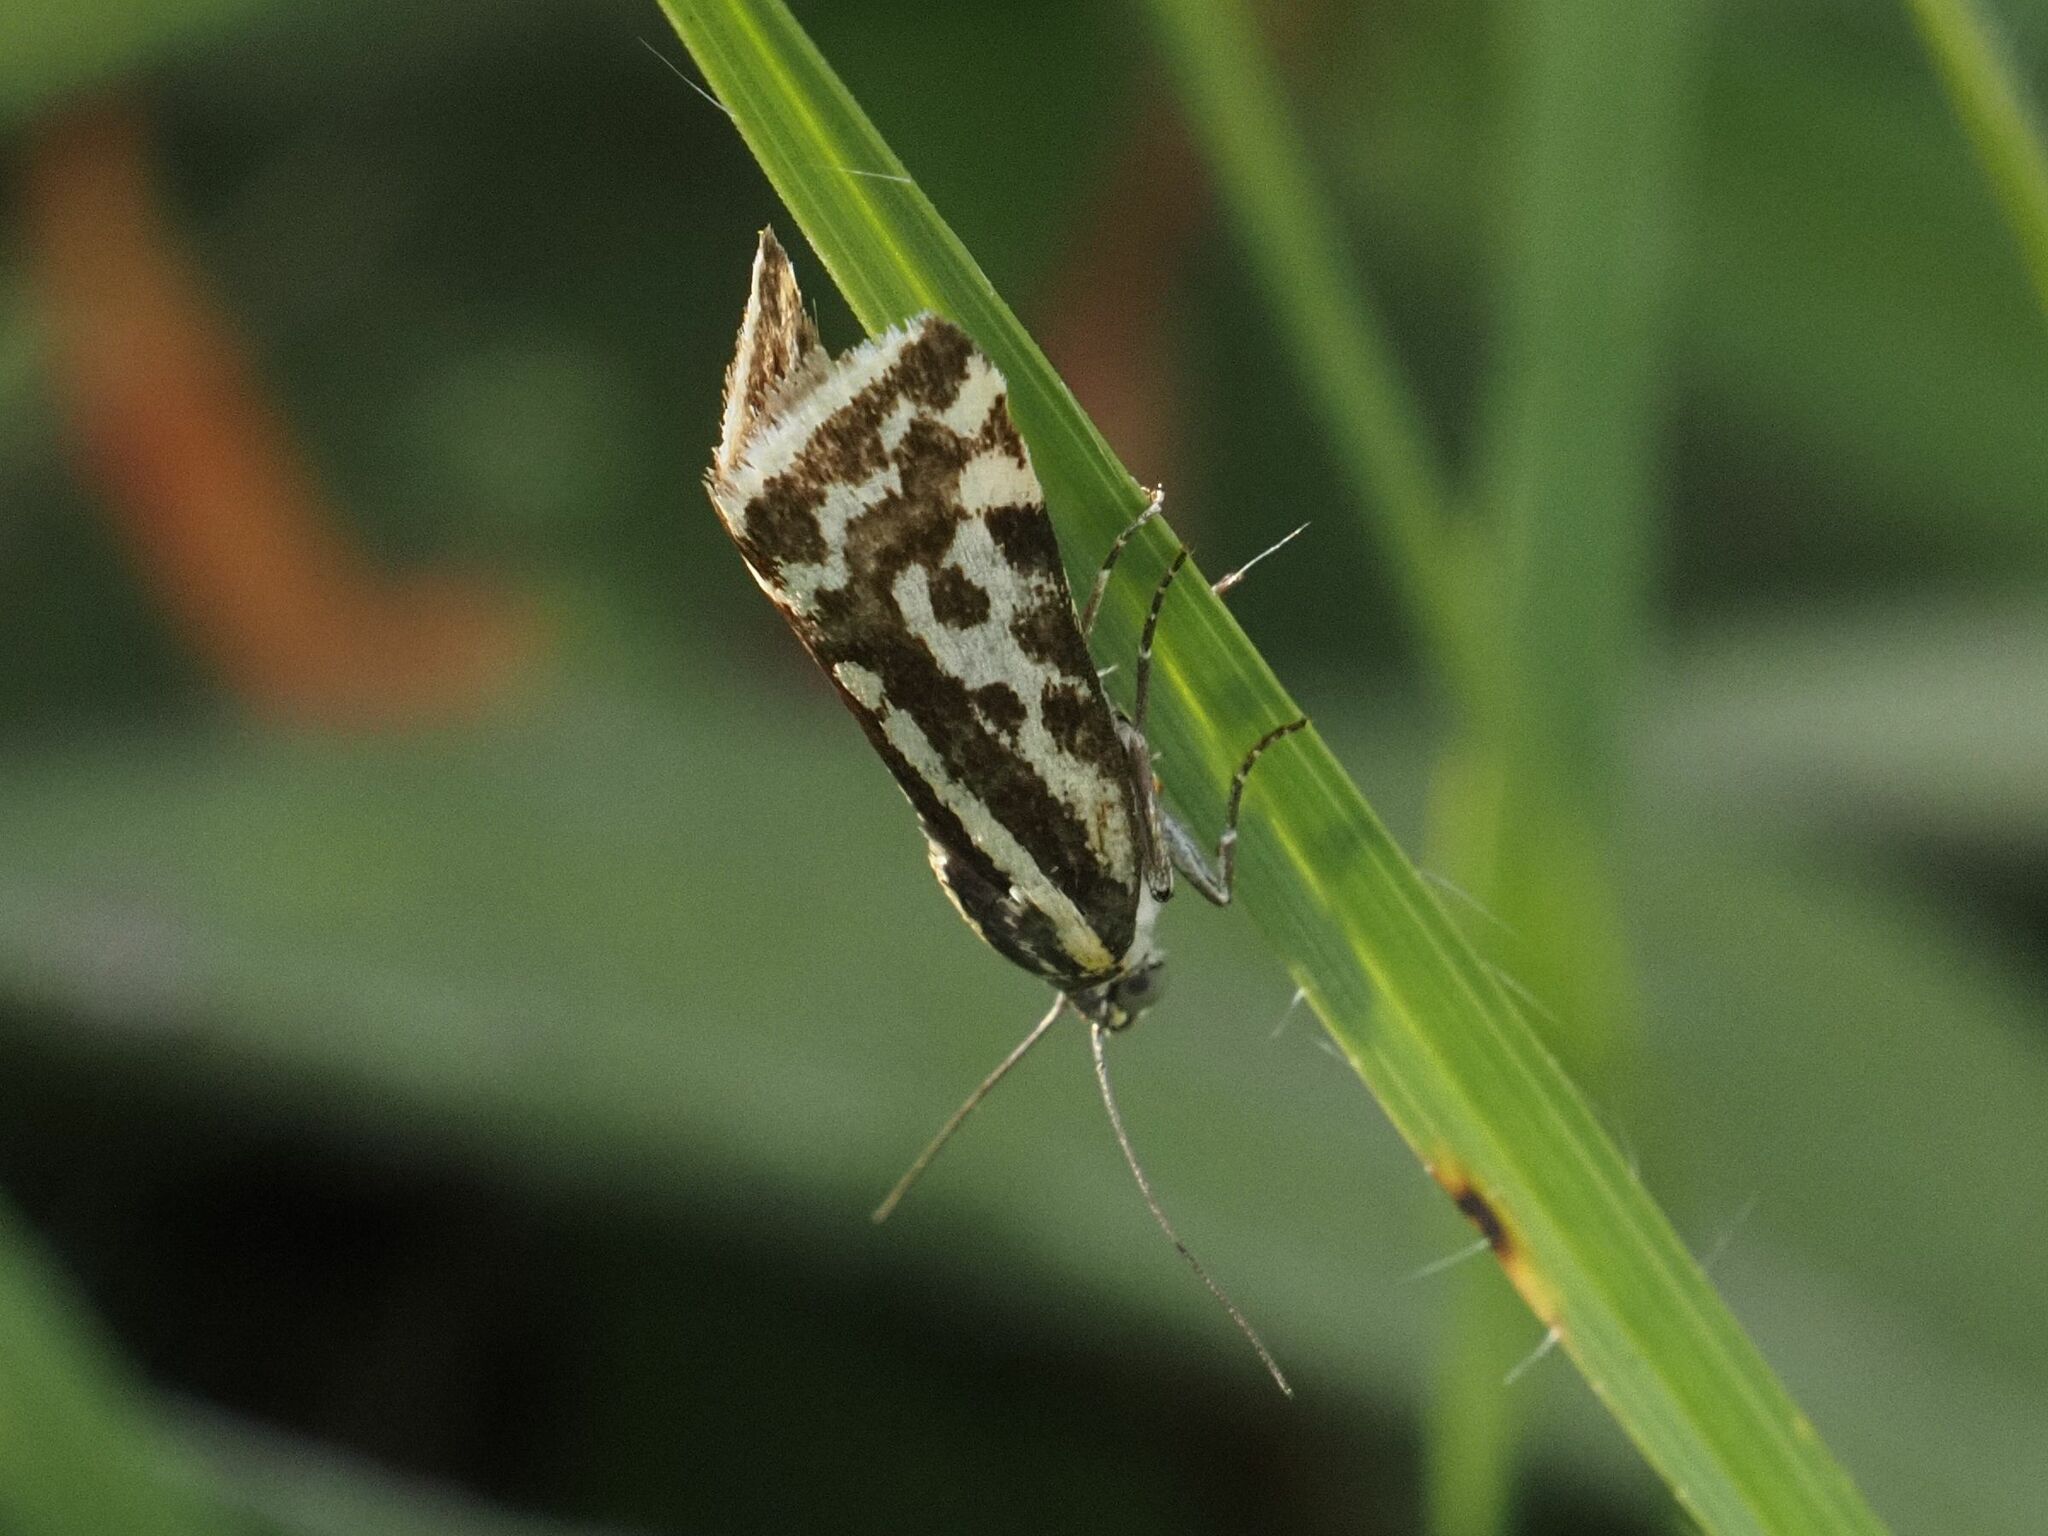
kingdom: Animalia
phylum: Arthropoda
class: Insecta
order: Lepidoptera
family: Noctuidae
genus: Acontia
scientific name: Acontia trabealis
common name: Spotted sulphur
